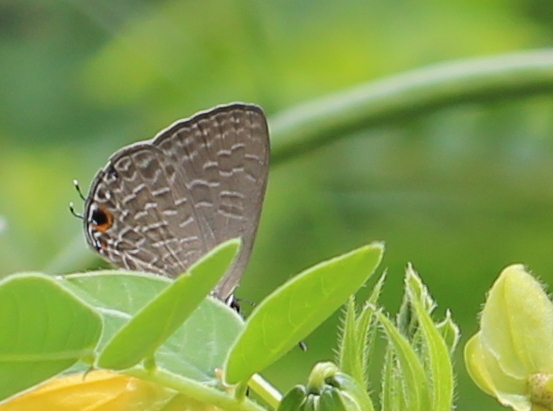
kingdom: Animalia
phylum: Arthropoda
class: Insecta
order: Lepidoptera
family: Lycaenidae
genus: Jamides
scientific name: Jamides bochus
